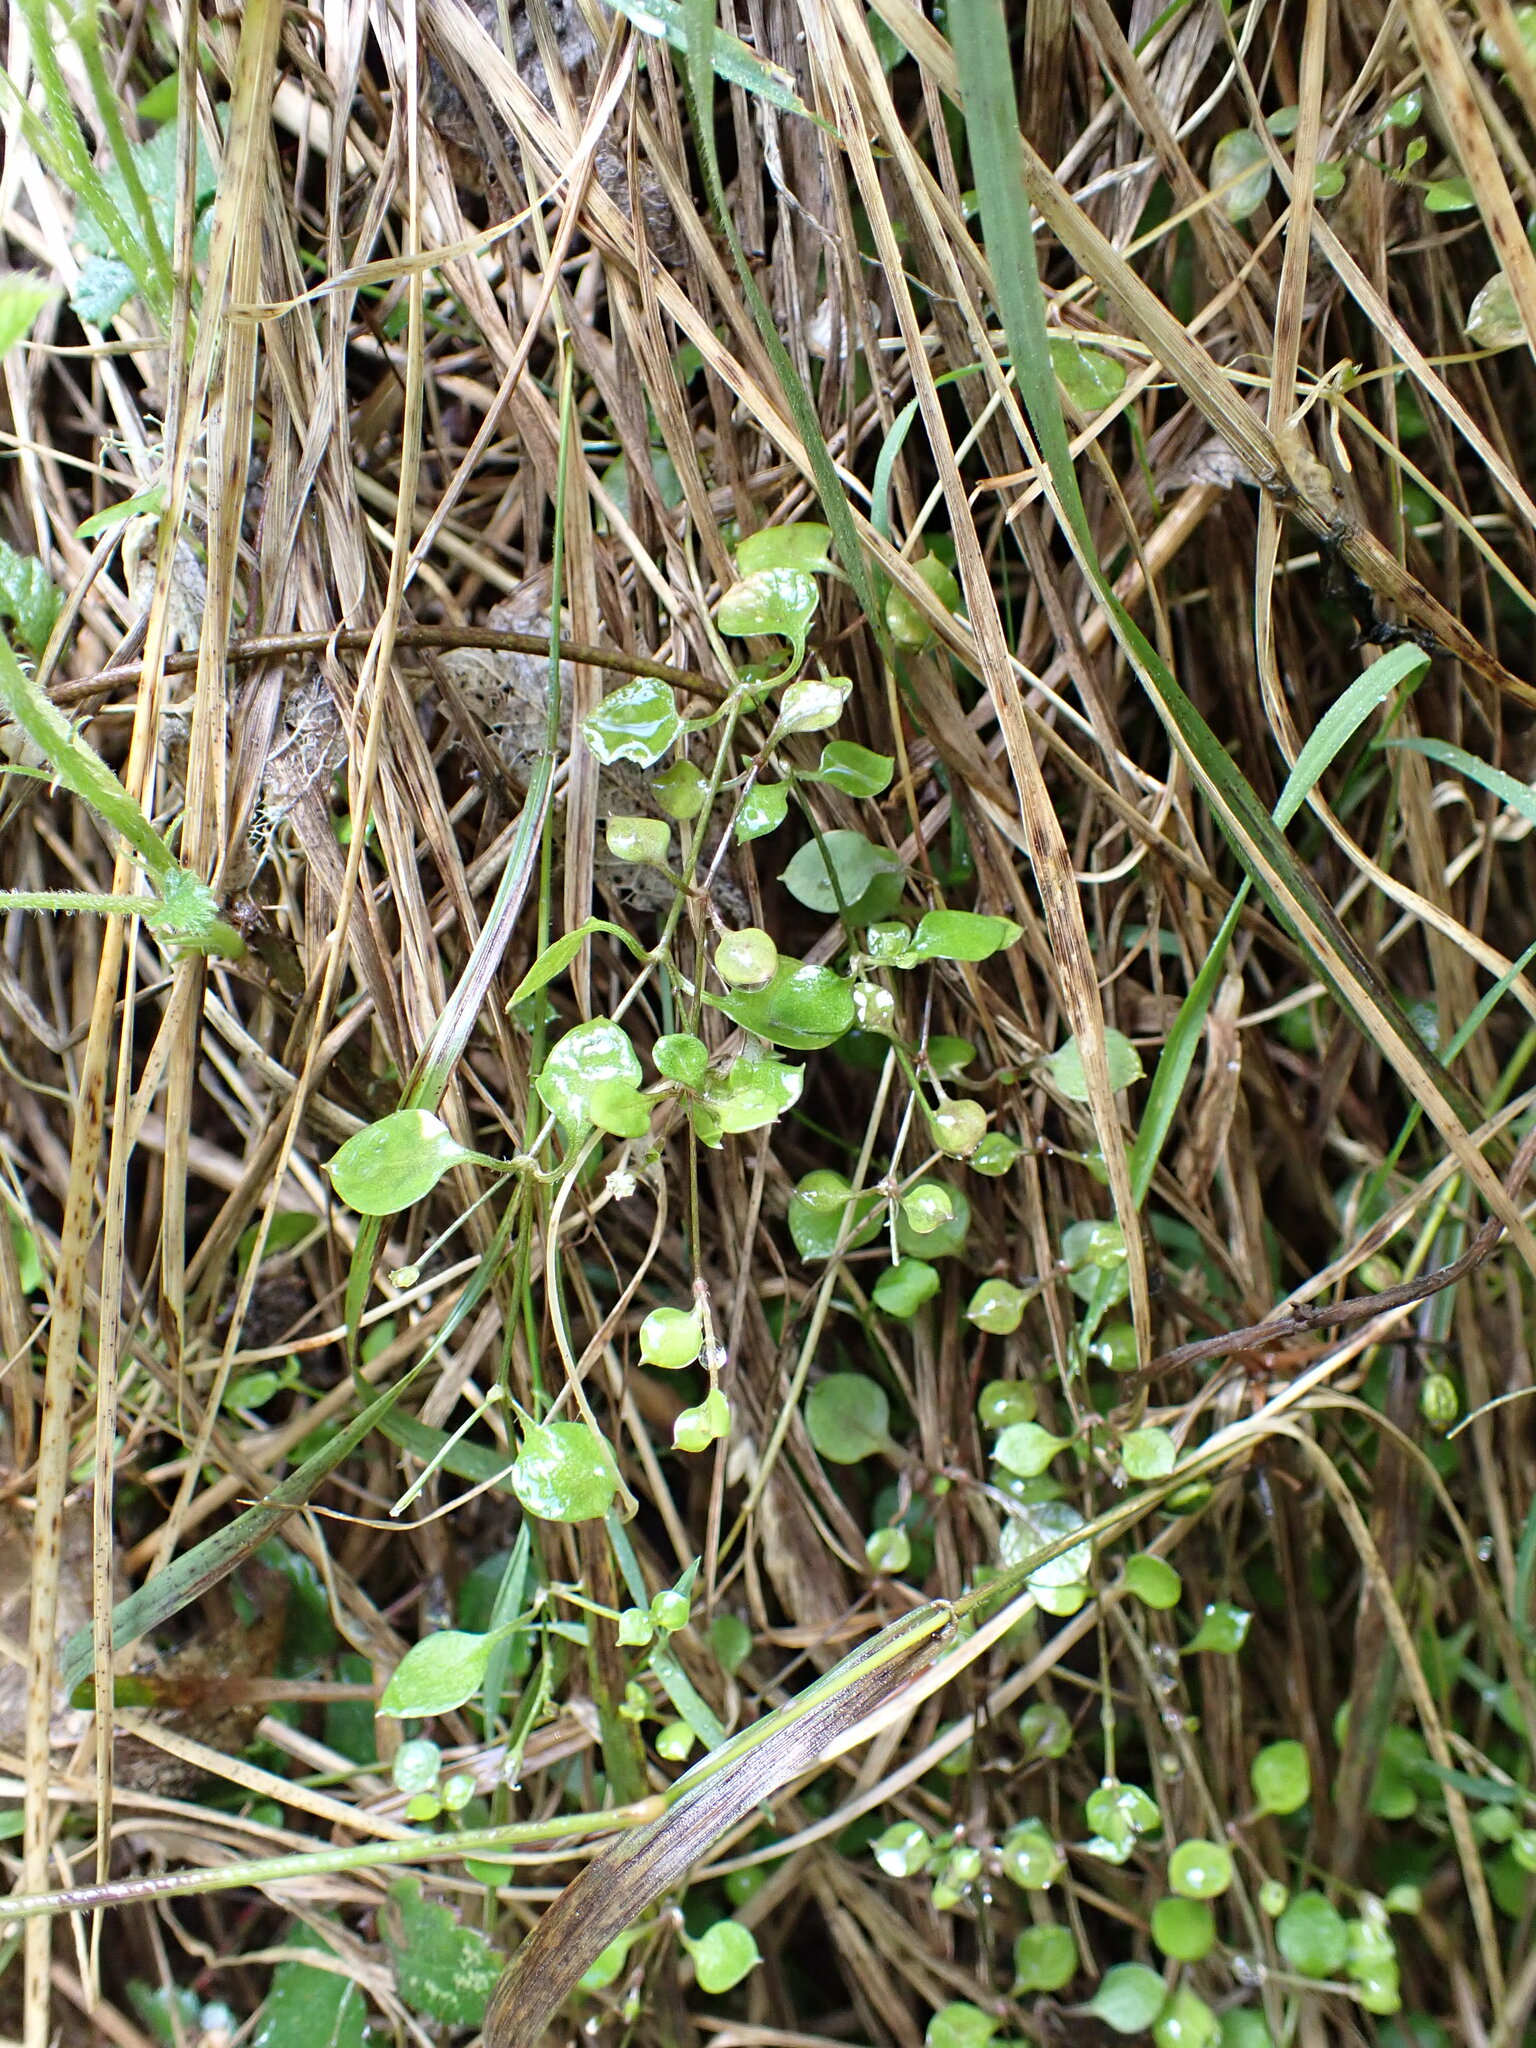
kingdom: Plantae
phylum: Tracheophyta
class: Magnoliopsida
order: Caryophyllales
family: Caryophyllaceae
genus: Stellaria
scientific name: Stellaria parviflora
